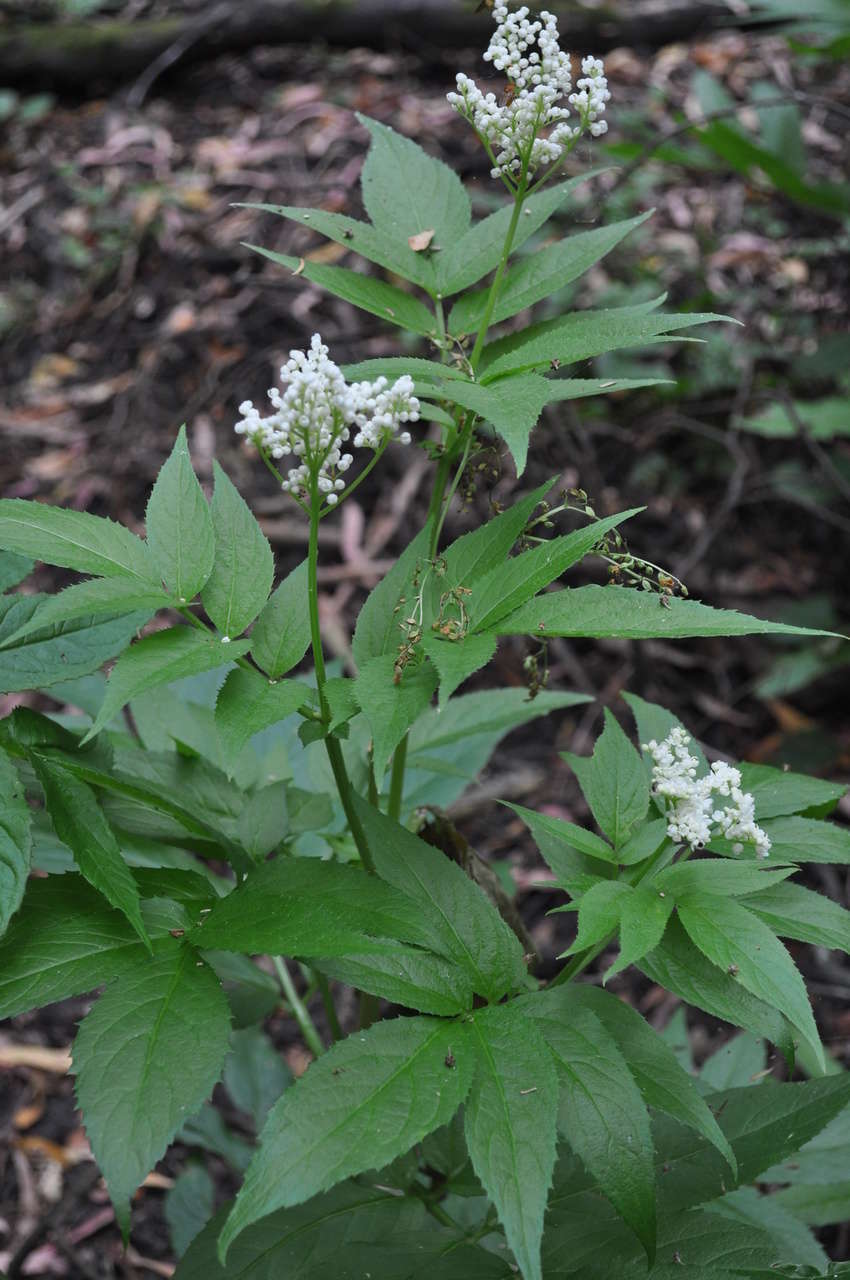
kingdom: Plantae
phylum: Tracheophyta
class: Magnoliopsida
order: Dipsacales
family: Viburnaceae
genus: Sambucus
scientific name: Sambucus gaudichaudiana
